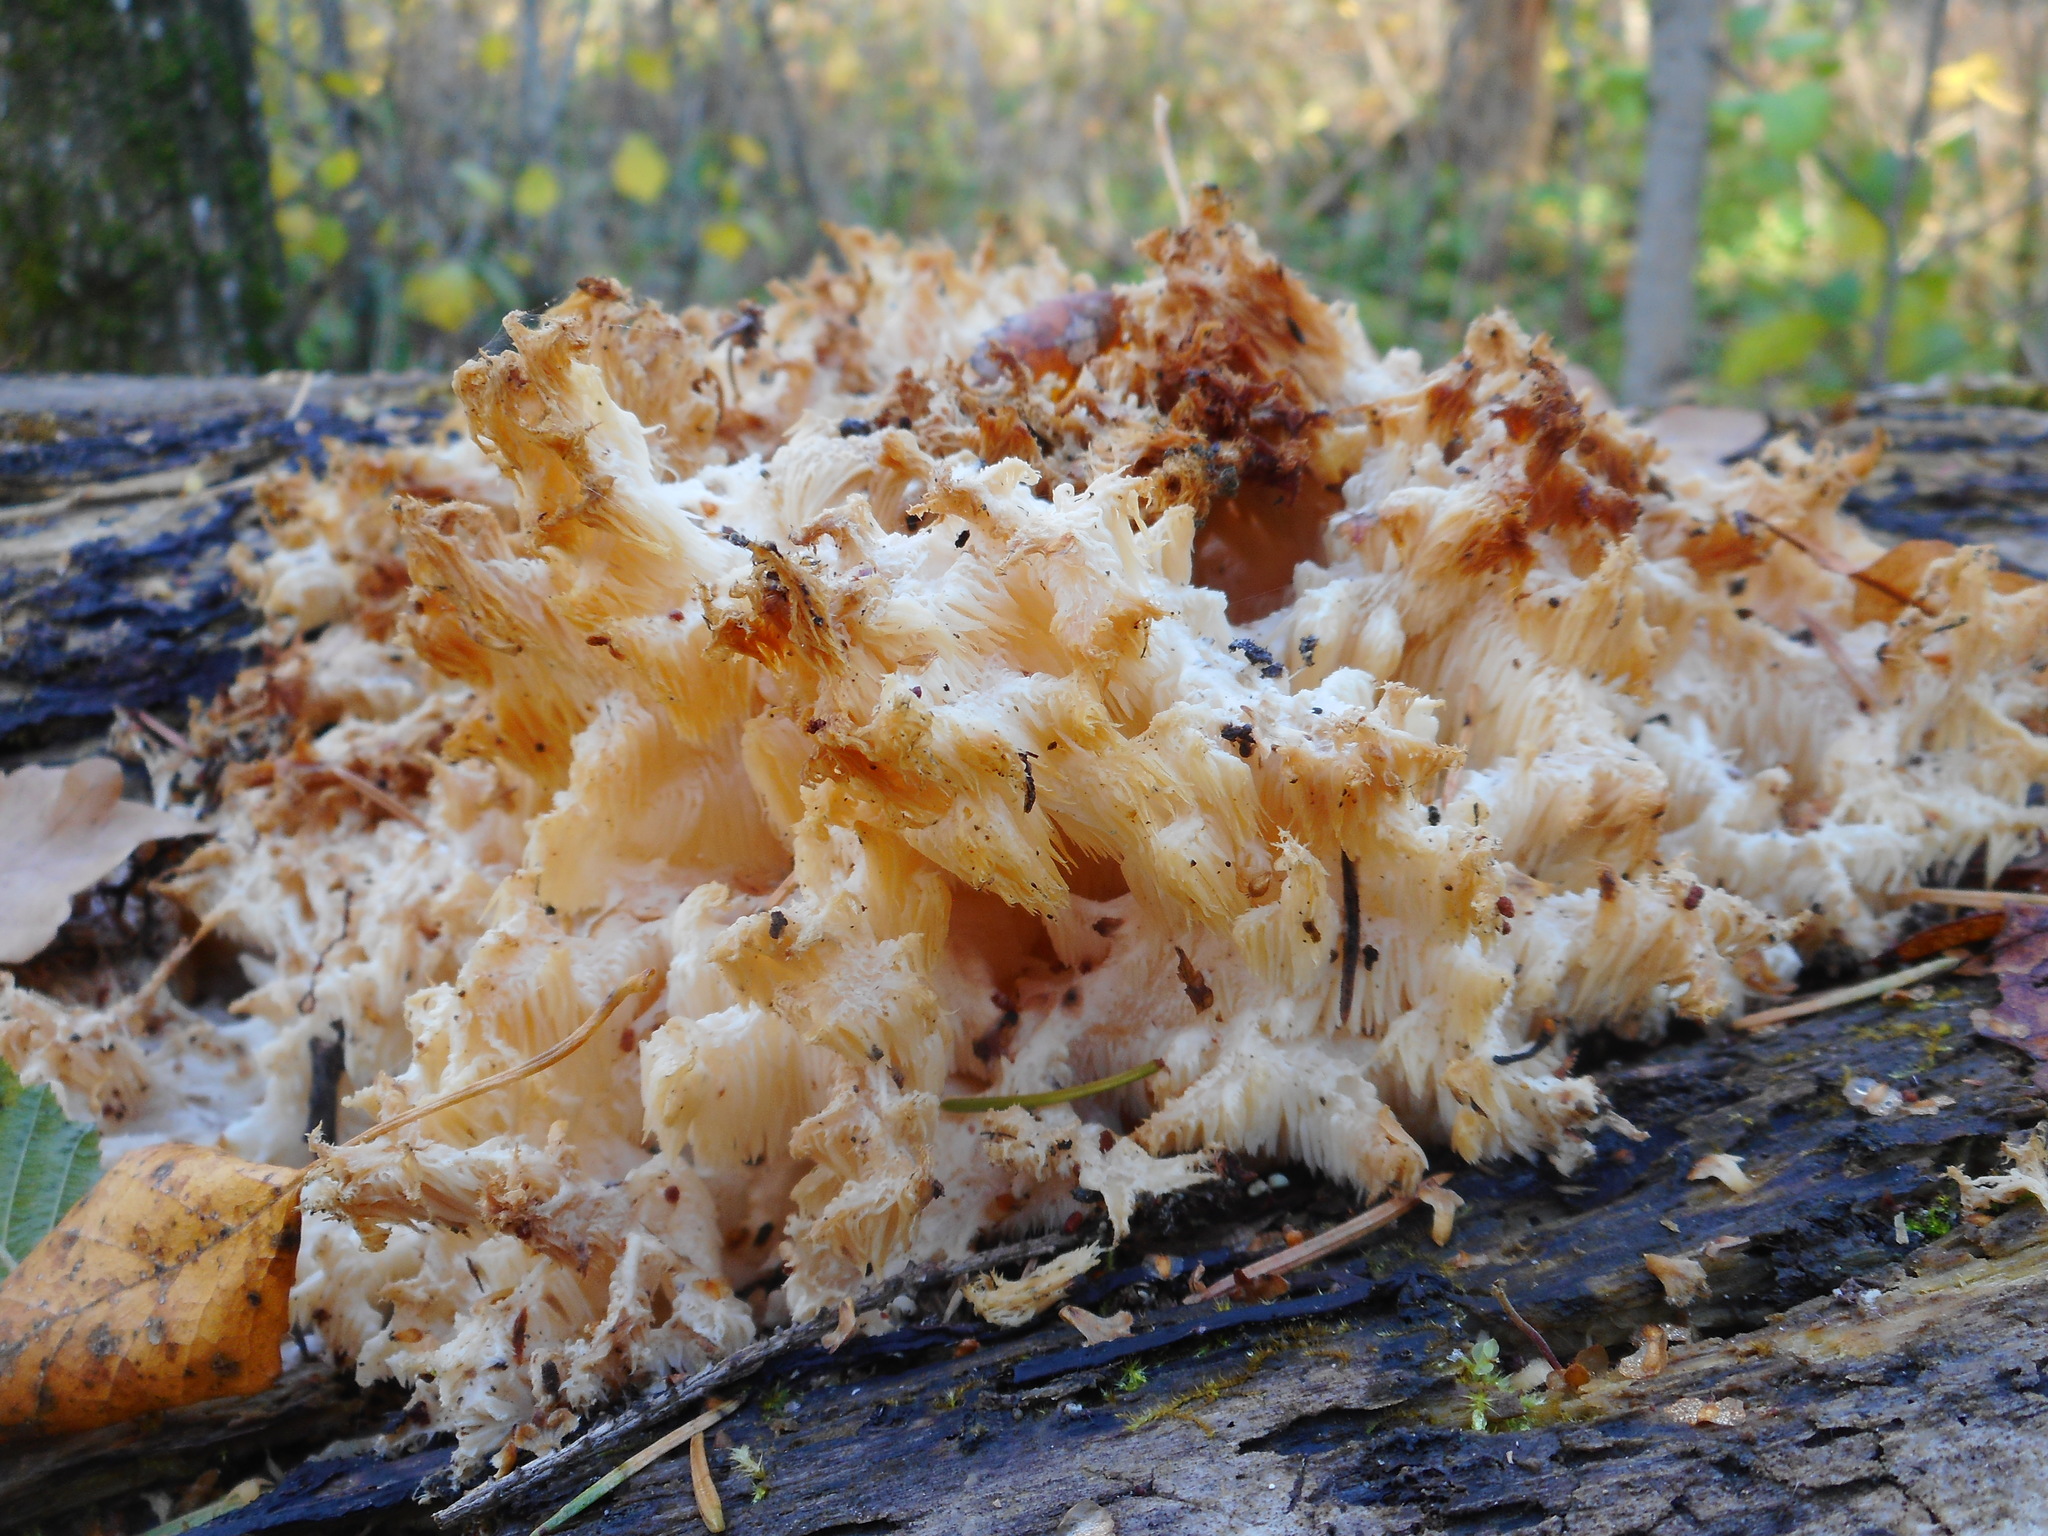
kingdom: Fungi
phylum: Basidiomycota
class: Agaricomycetes
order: Russulales
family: Hericiaceae
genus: Hericium
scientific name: Hericium coralloides
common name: Coral tooth
